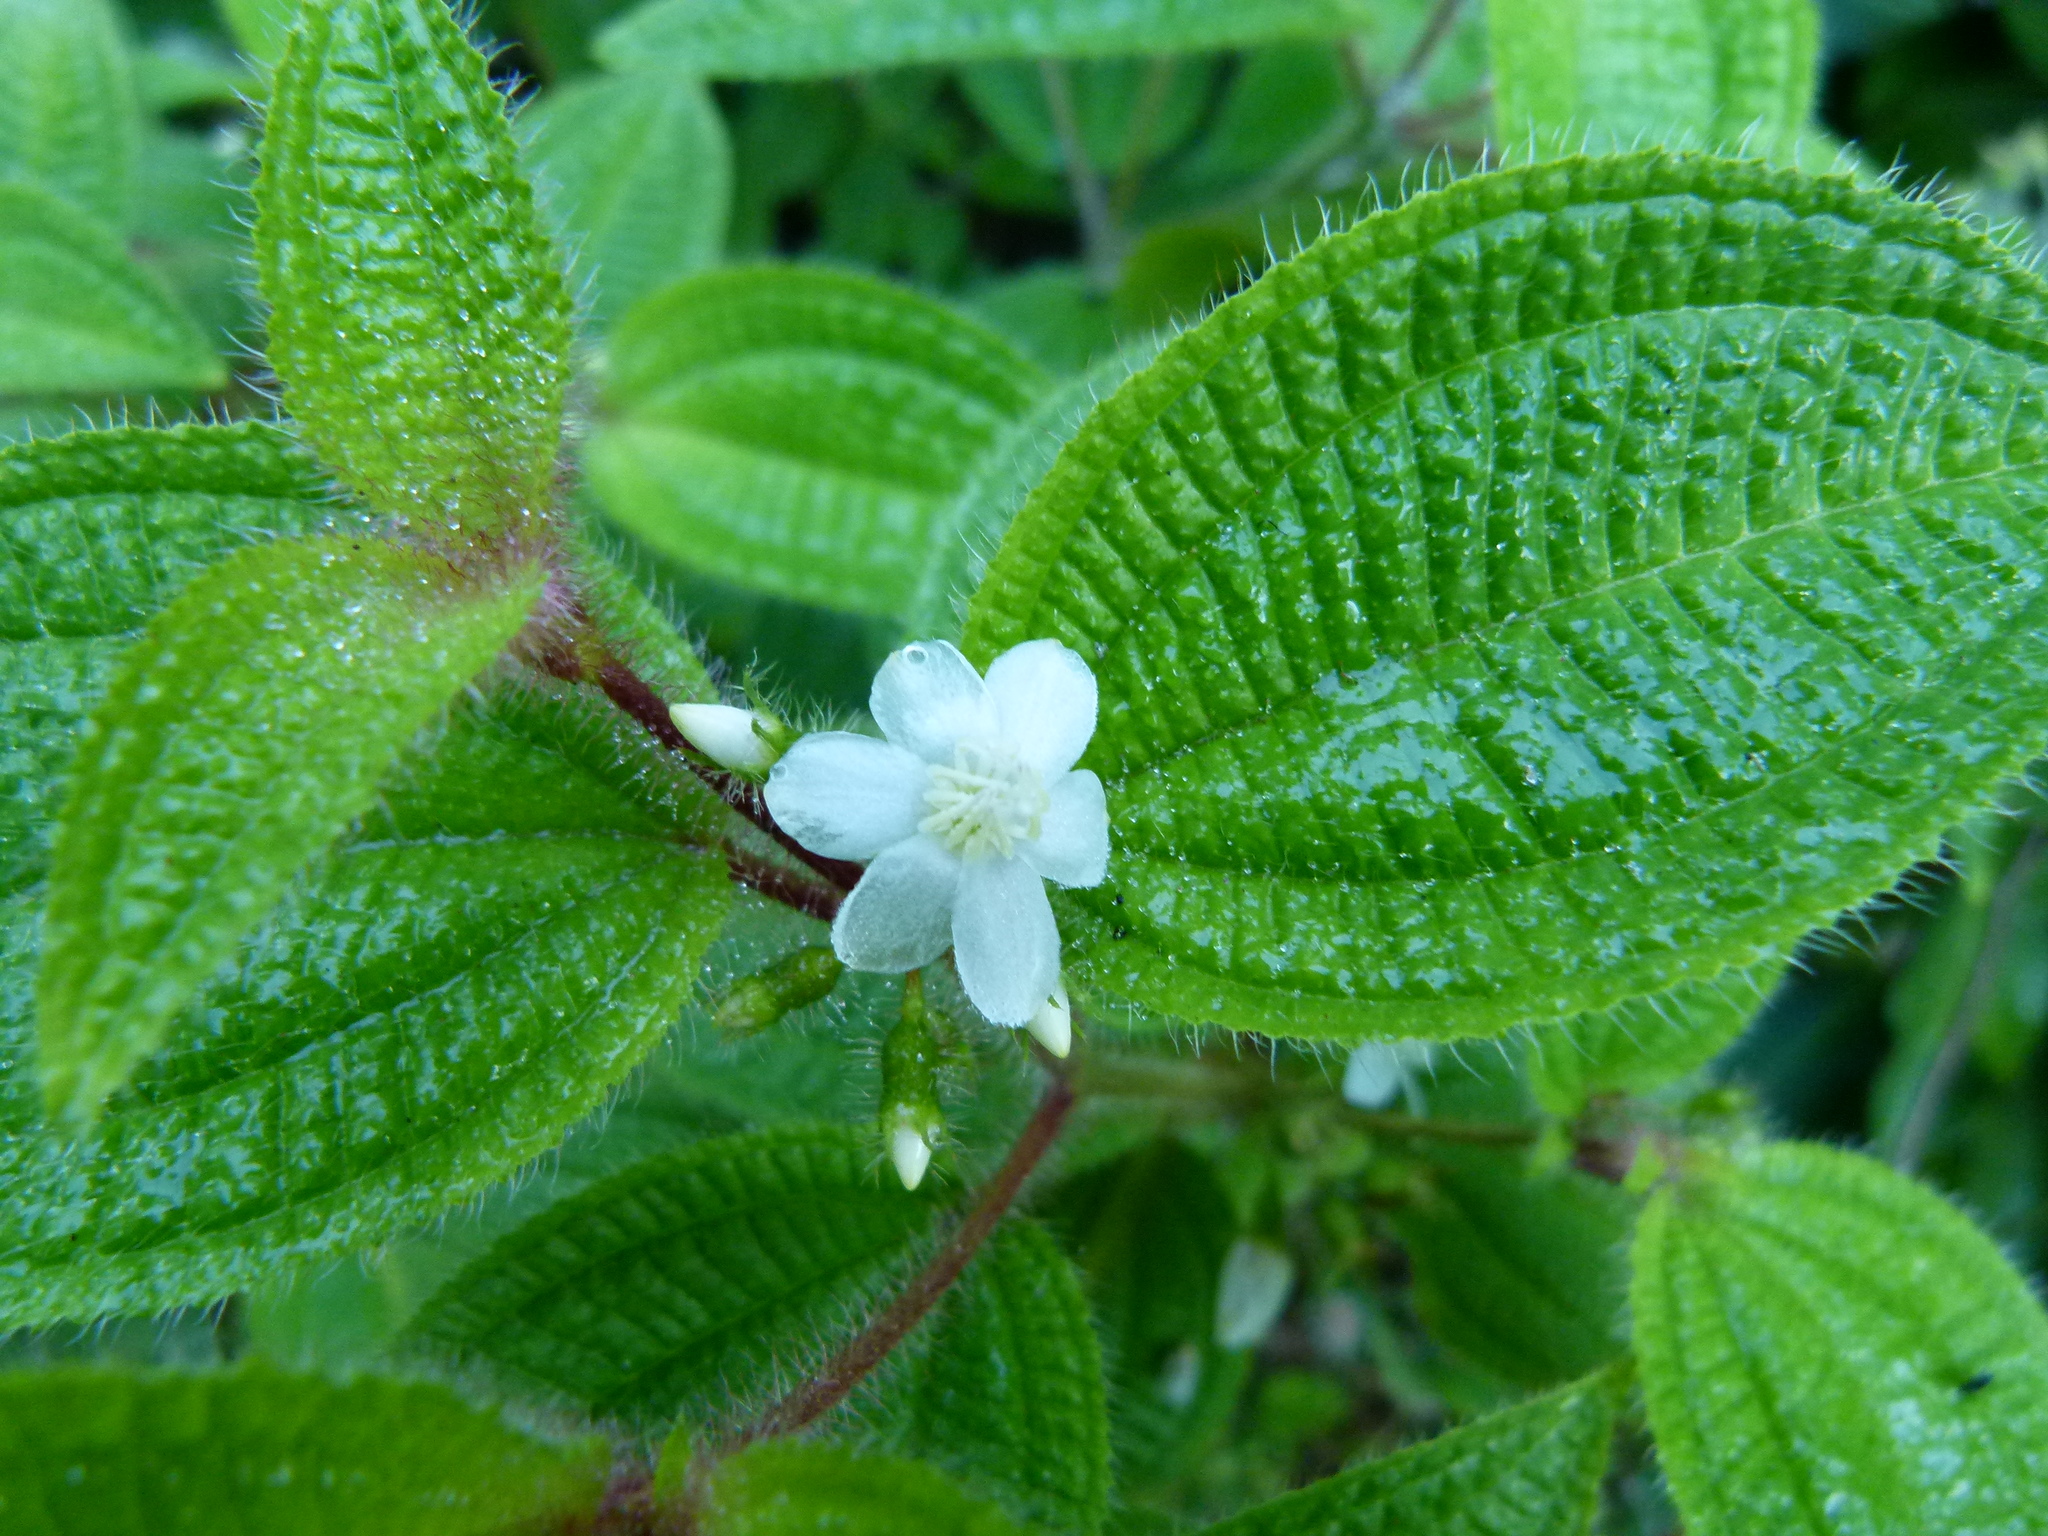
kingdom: Plantae
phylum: Tracheophyta
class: Magnoliopsida
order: Myrtales
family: Melastomataceae
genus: Miconia
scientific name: Miconia crenata
